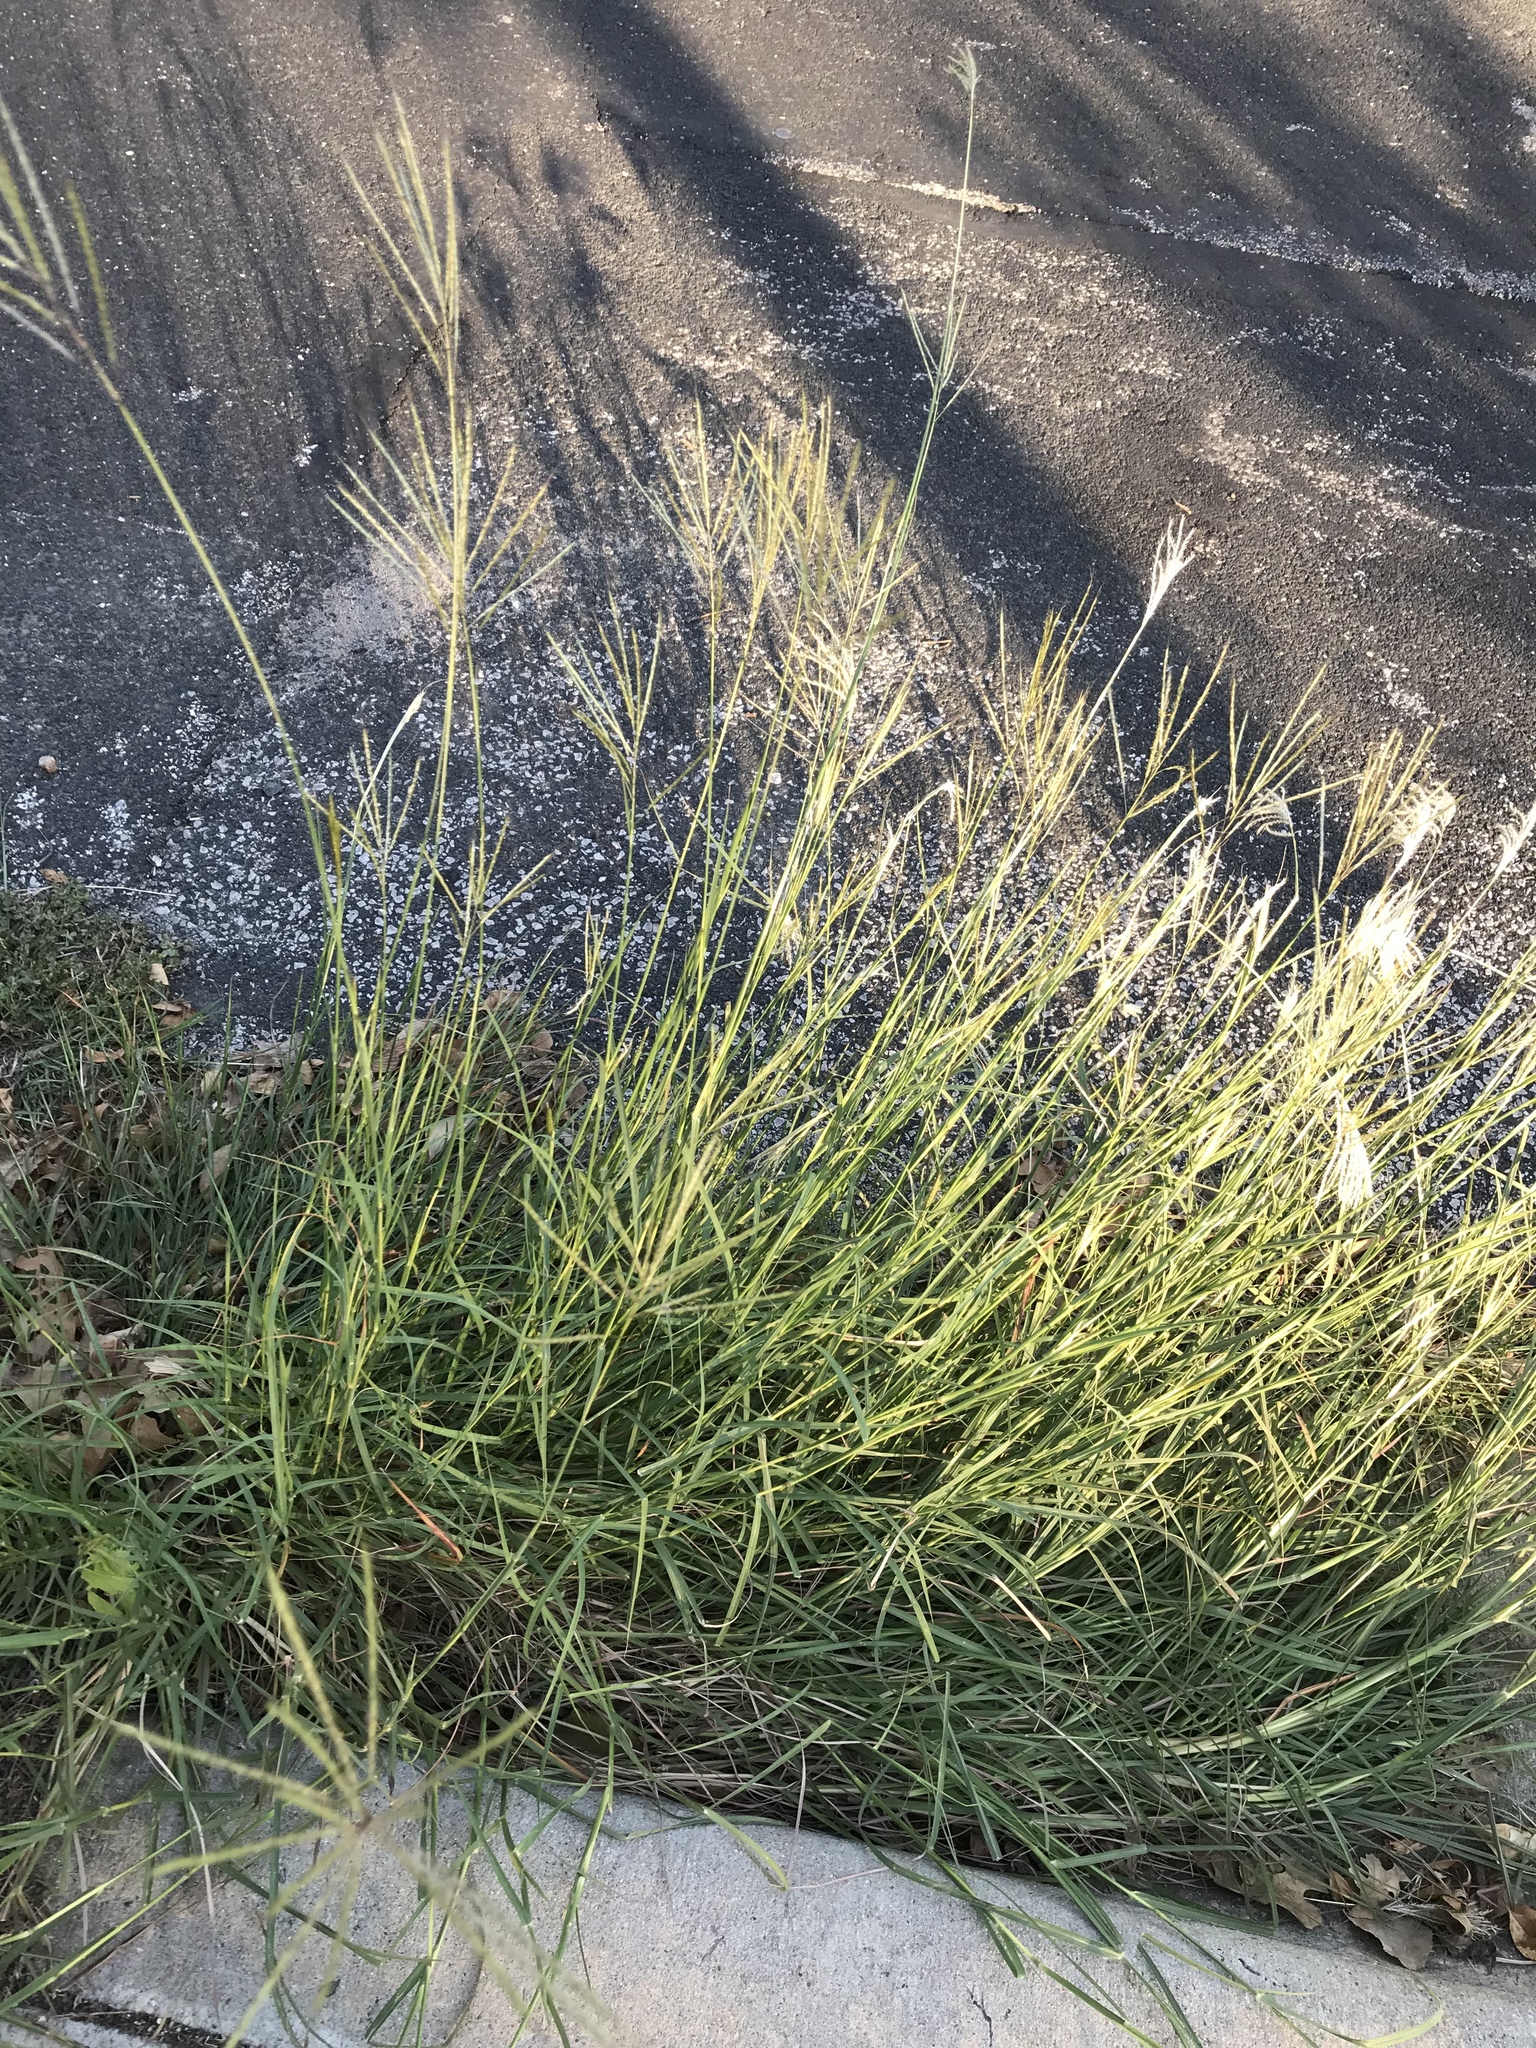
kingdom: Plantae
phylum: Tracheophyta
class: Liliopsida
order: Poales
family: Poaceae
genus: Bothriochloa
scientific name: Bothriochloa ischaemum
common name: Yellow bluestem
